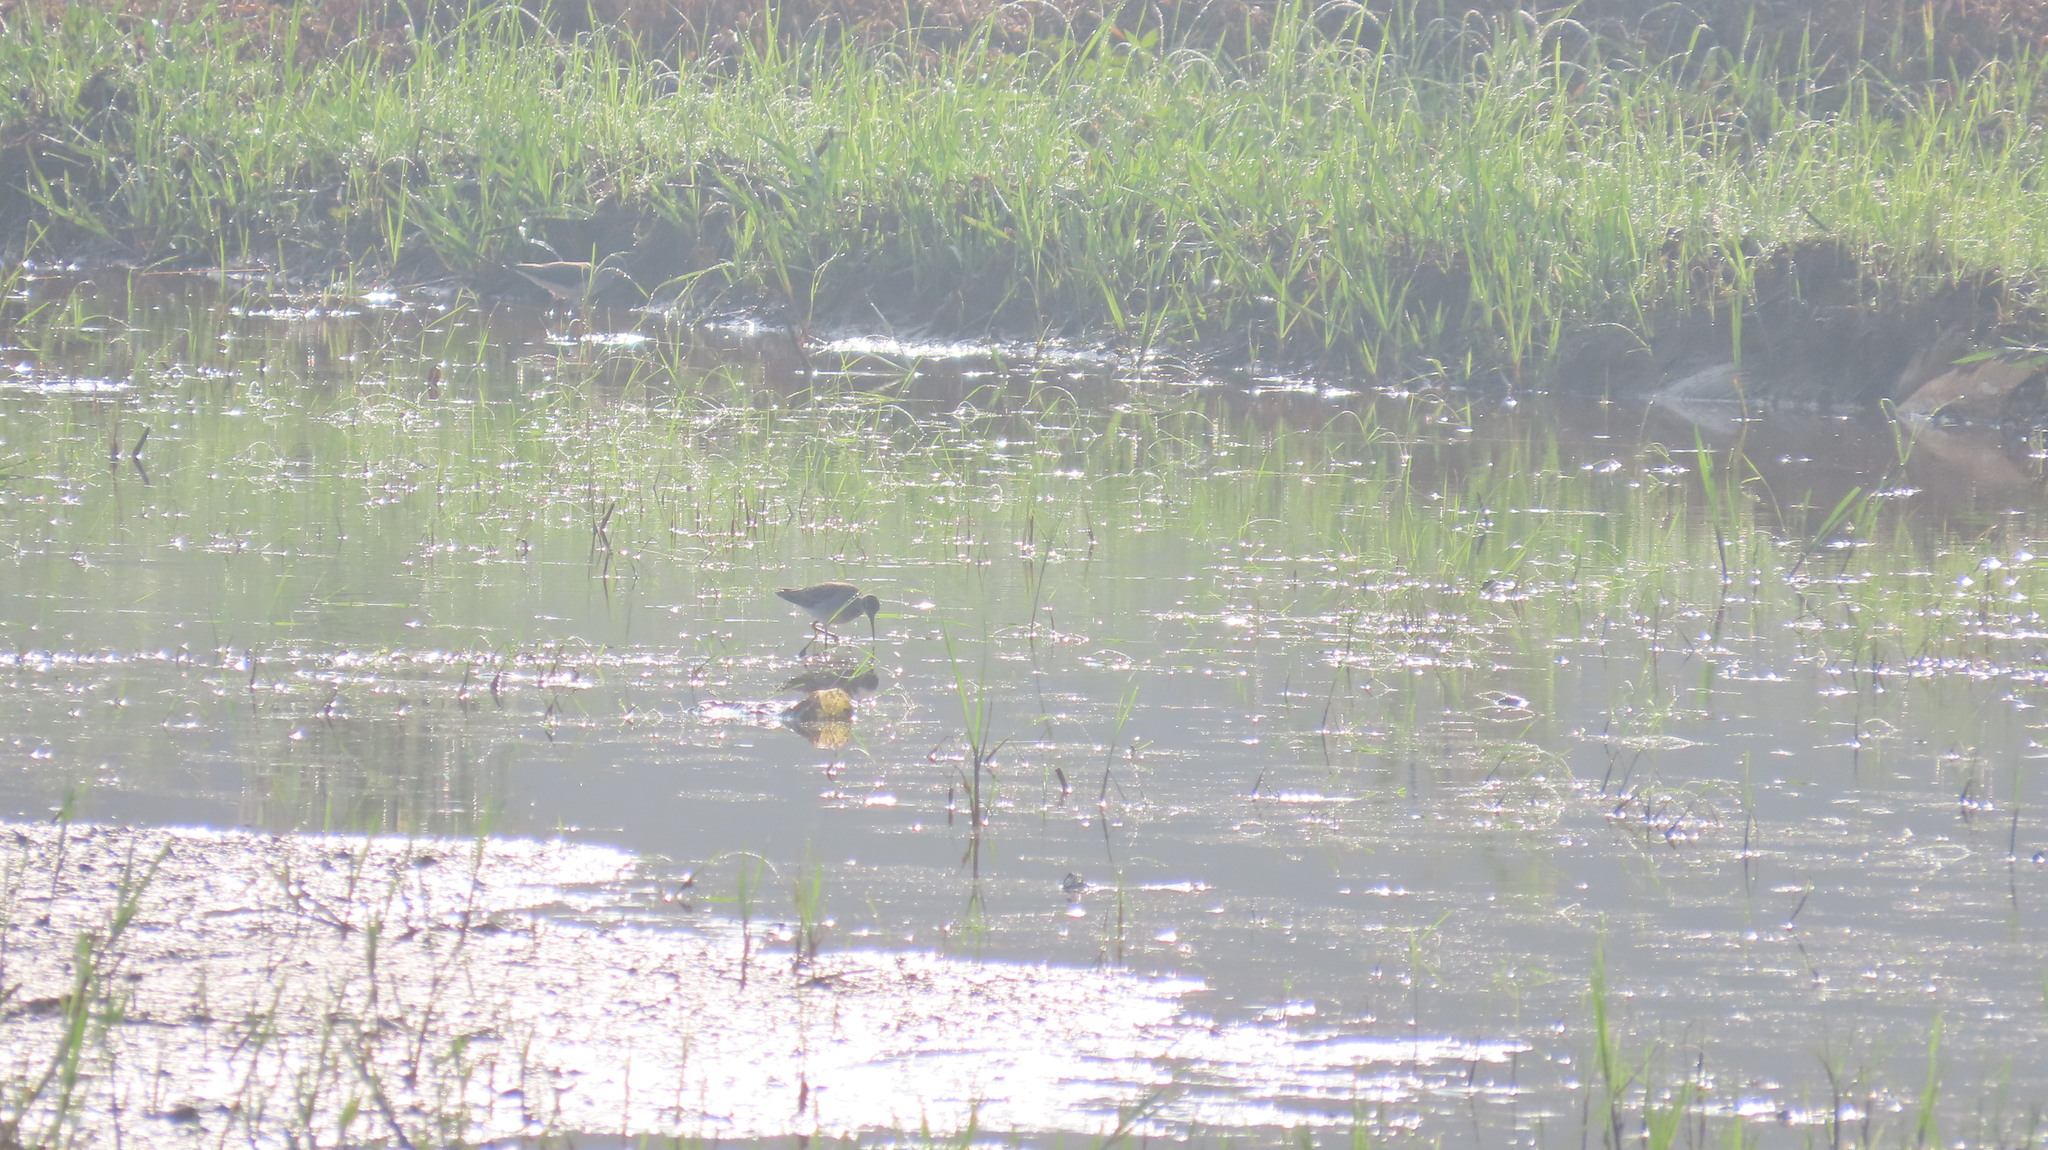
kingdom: Animalia
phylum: Chordata
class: Aves
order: Charadriiformes
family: Scolopacidae
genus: Tringa
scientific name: Tringa glareola
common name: Wood sandpiper
